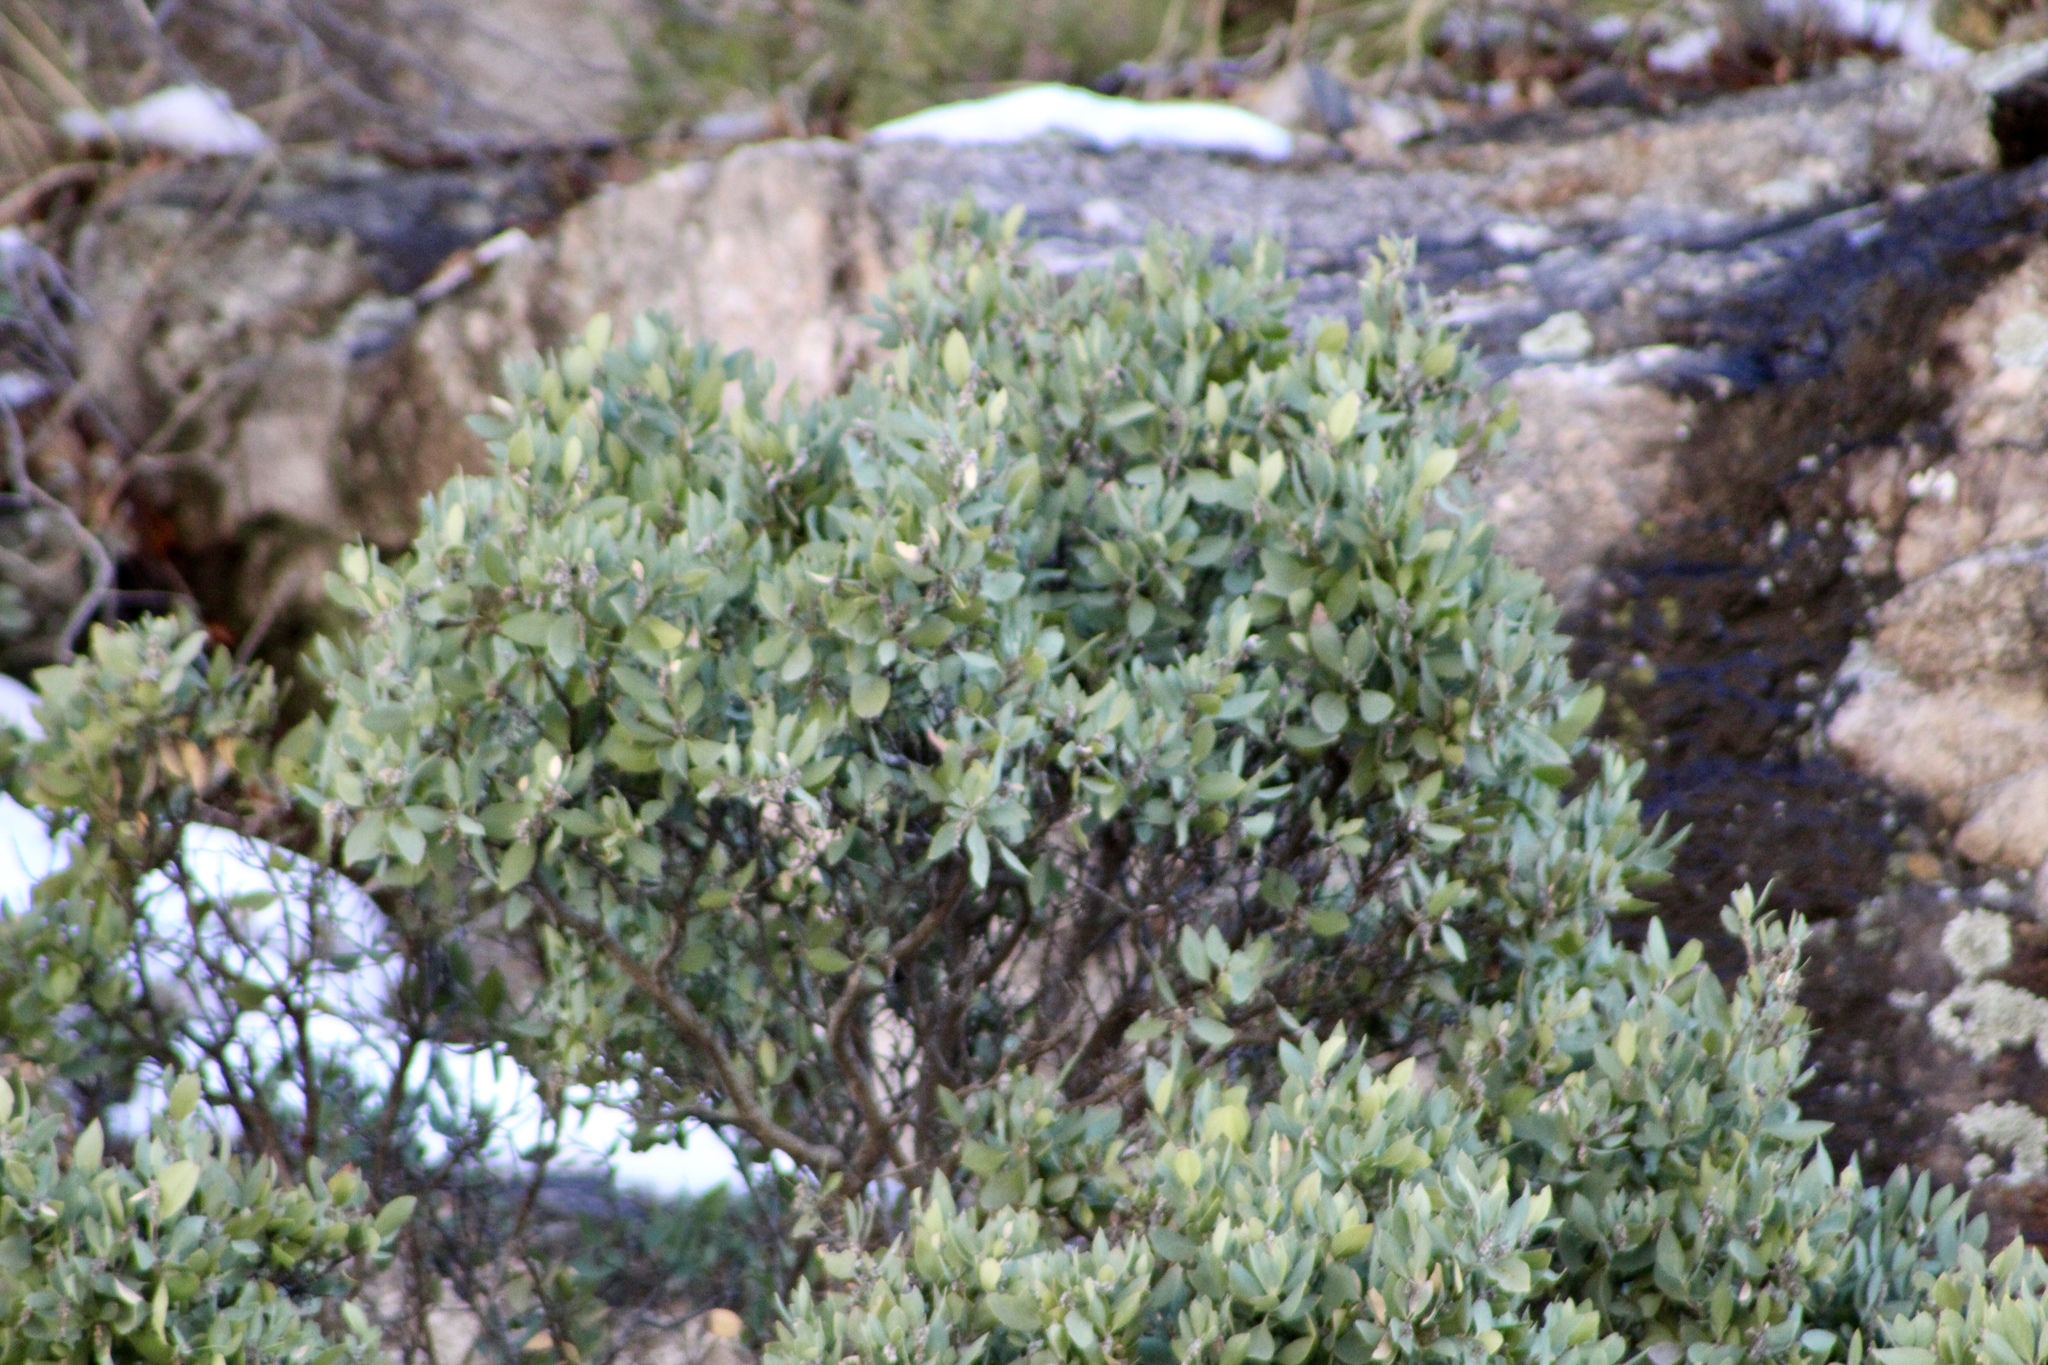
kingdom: Plantae
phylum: Tracheophyta
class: Magnoliopsida
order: Ericales
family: Ericaceae
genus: Arctostaphylos
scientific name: Arctostaphylos pungens
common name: Mexican manzanita
